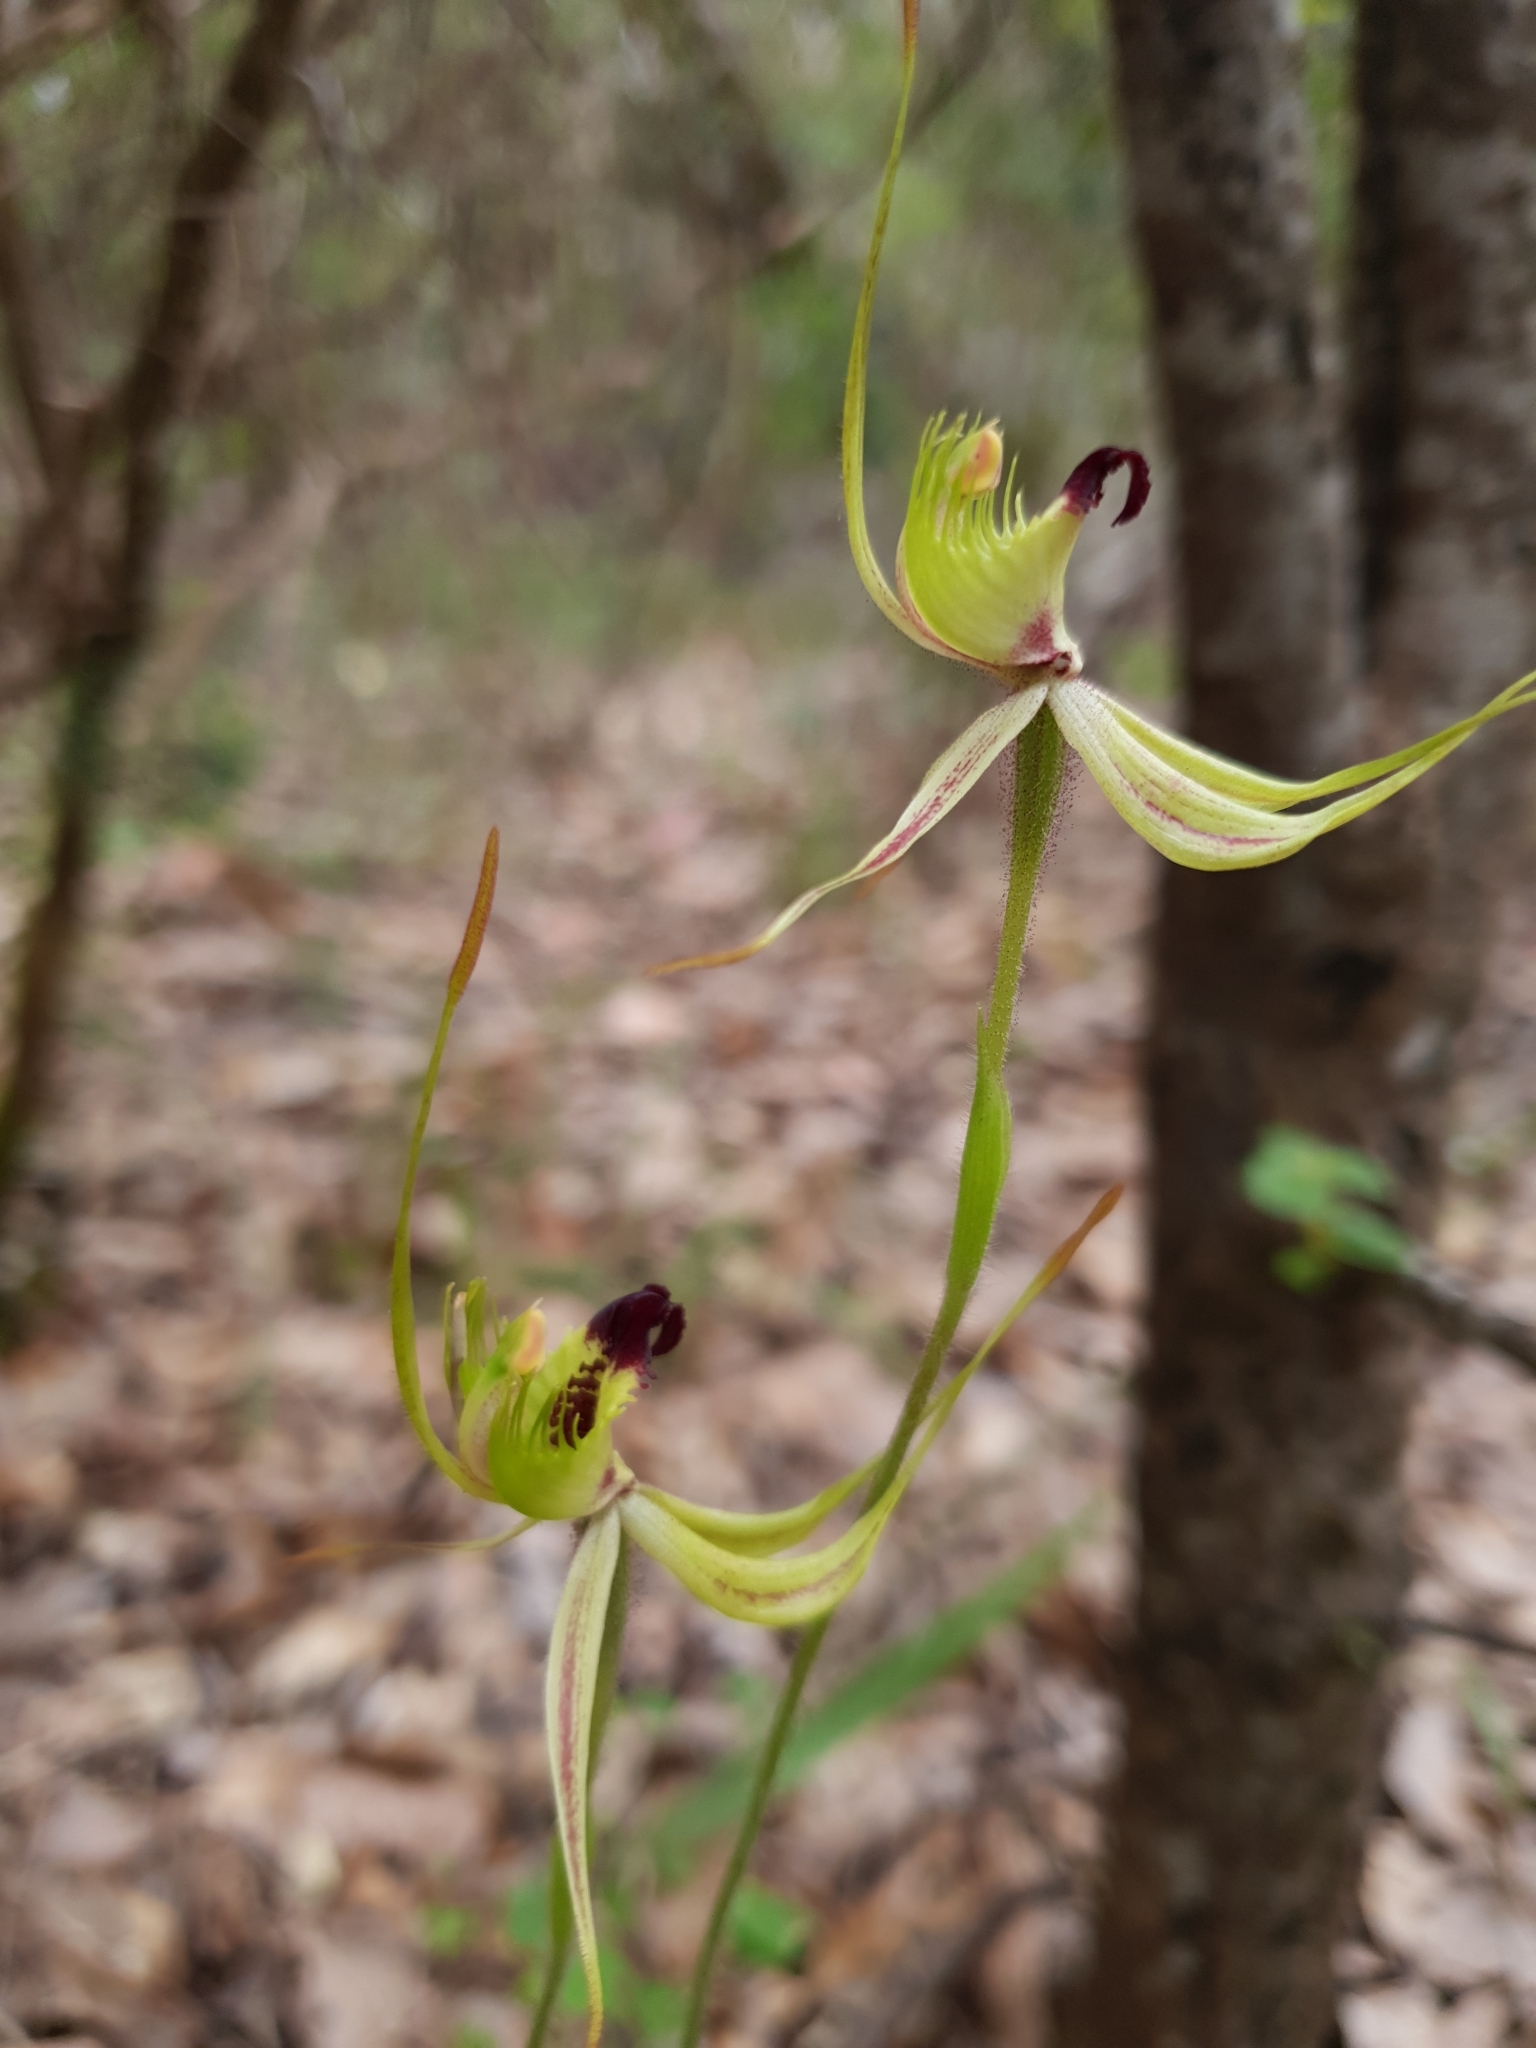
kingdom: Plantae
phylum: Tracheophyta
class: Liliopsida
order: Asparagales
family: Orchidaceae
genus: Caladenia
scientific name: Caladenia attingens
